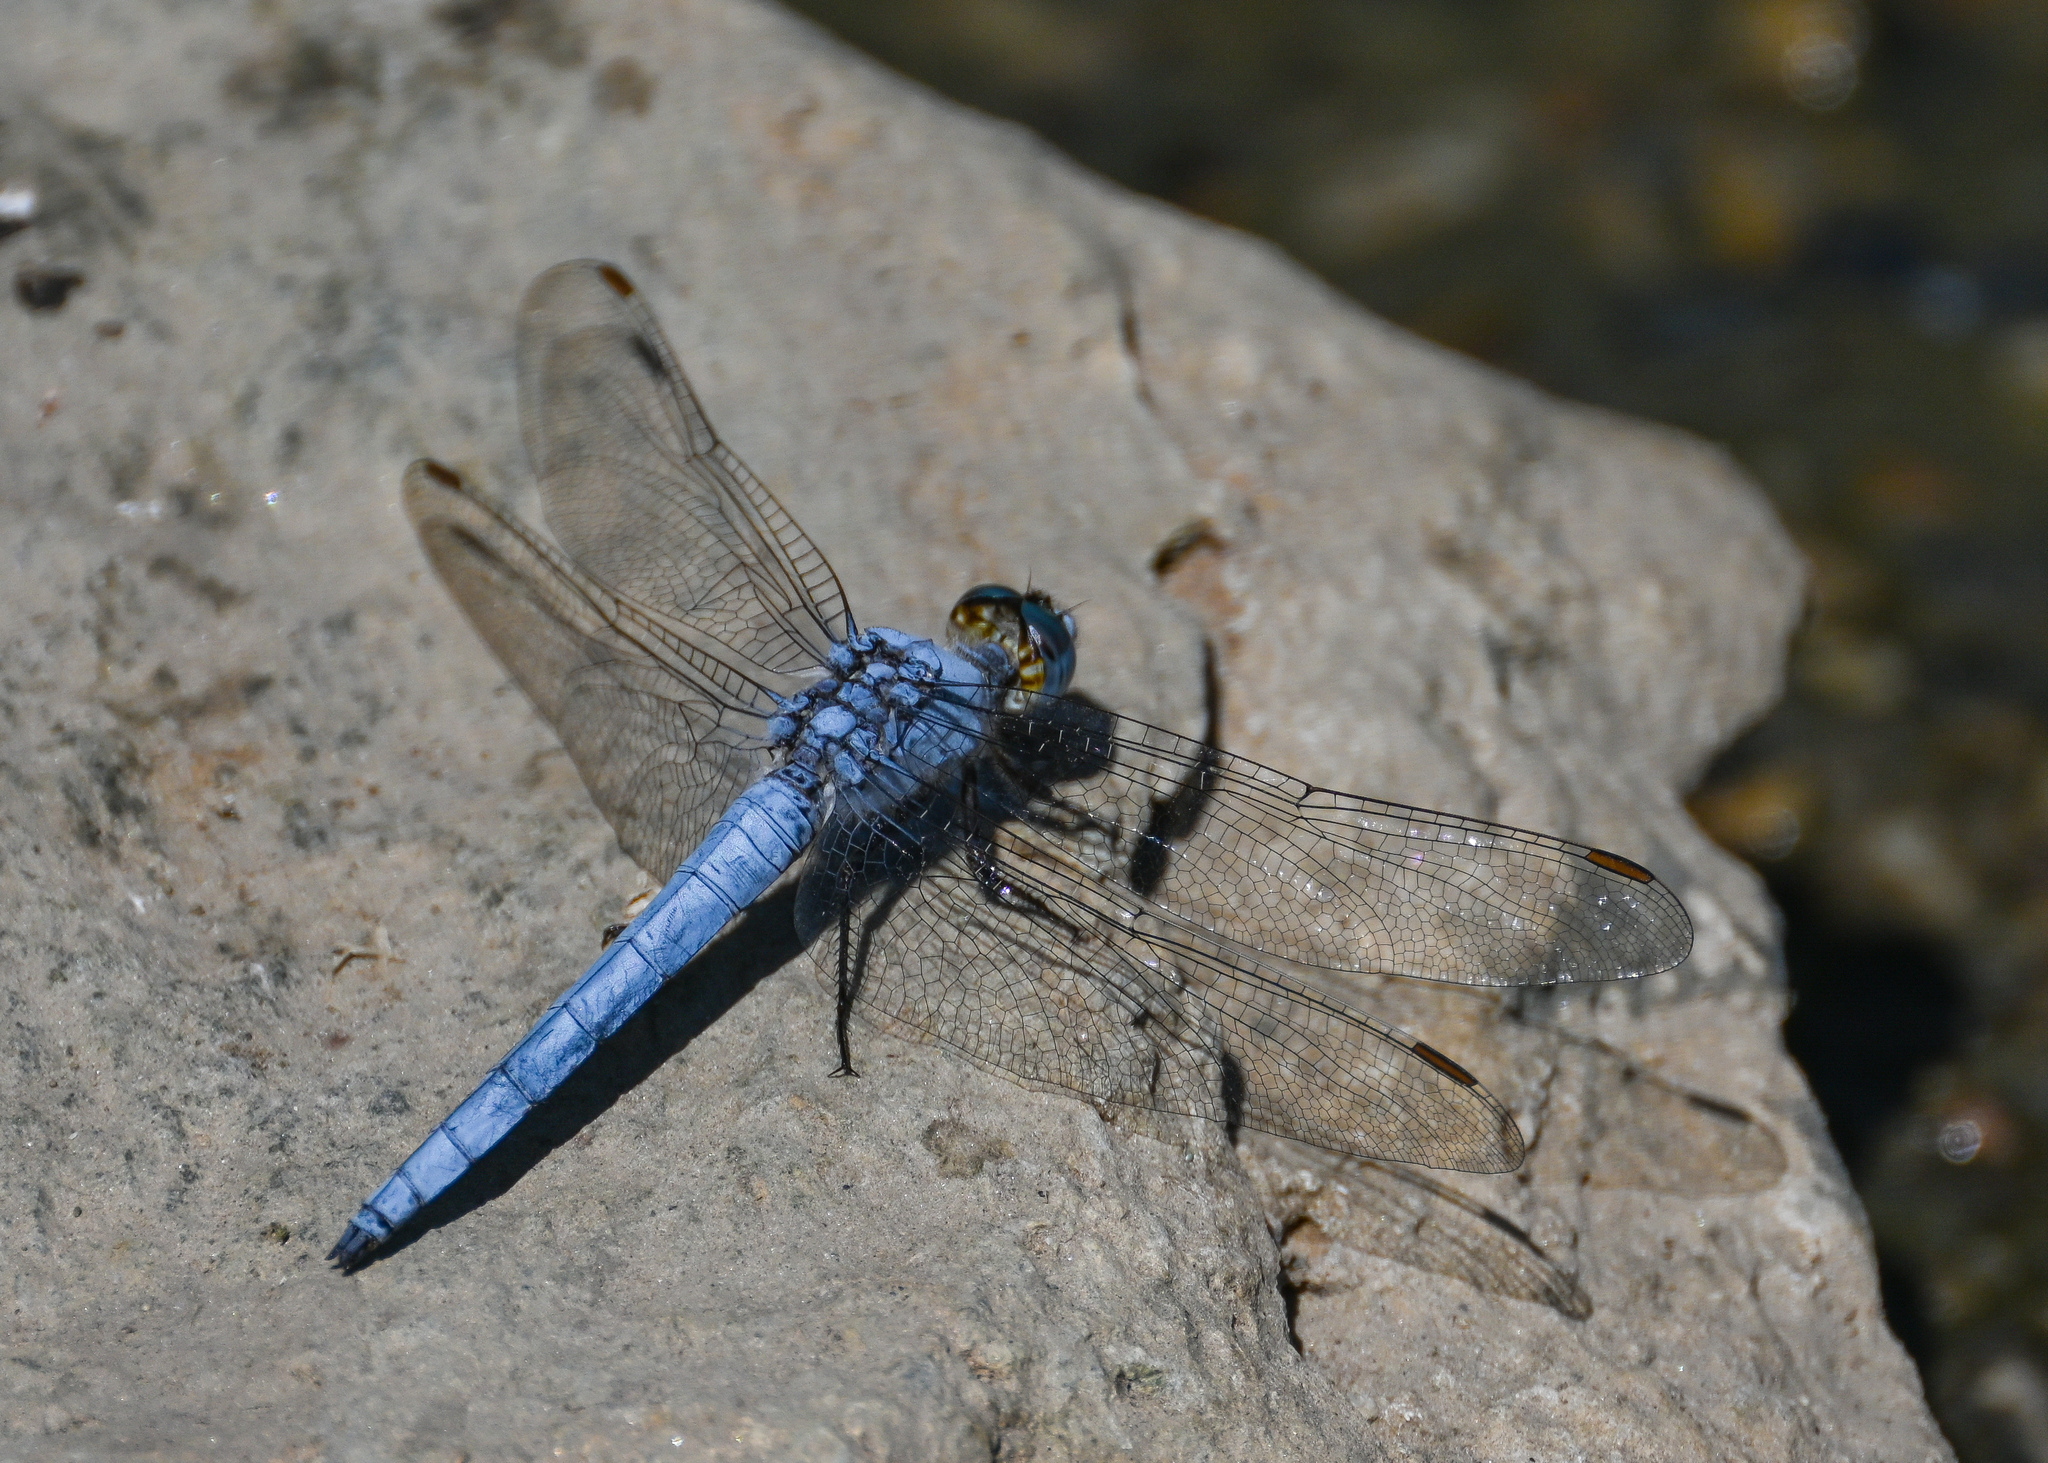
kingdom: Animalia
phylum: Arthropoda
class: Insecta
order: Odonata
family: Libellulidae
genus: Orthetrum
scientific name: Orthetrum brunneum
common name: Southern skimmer
